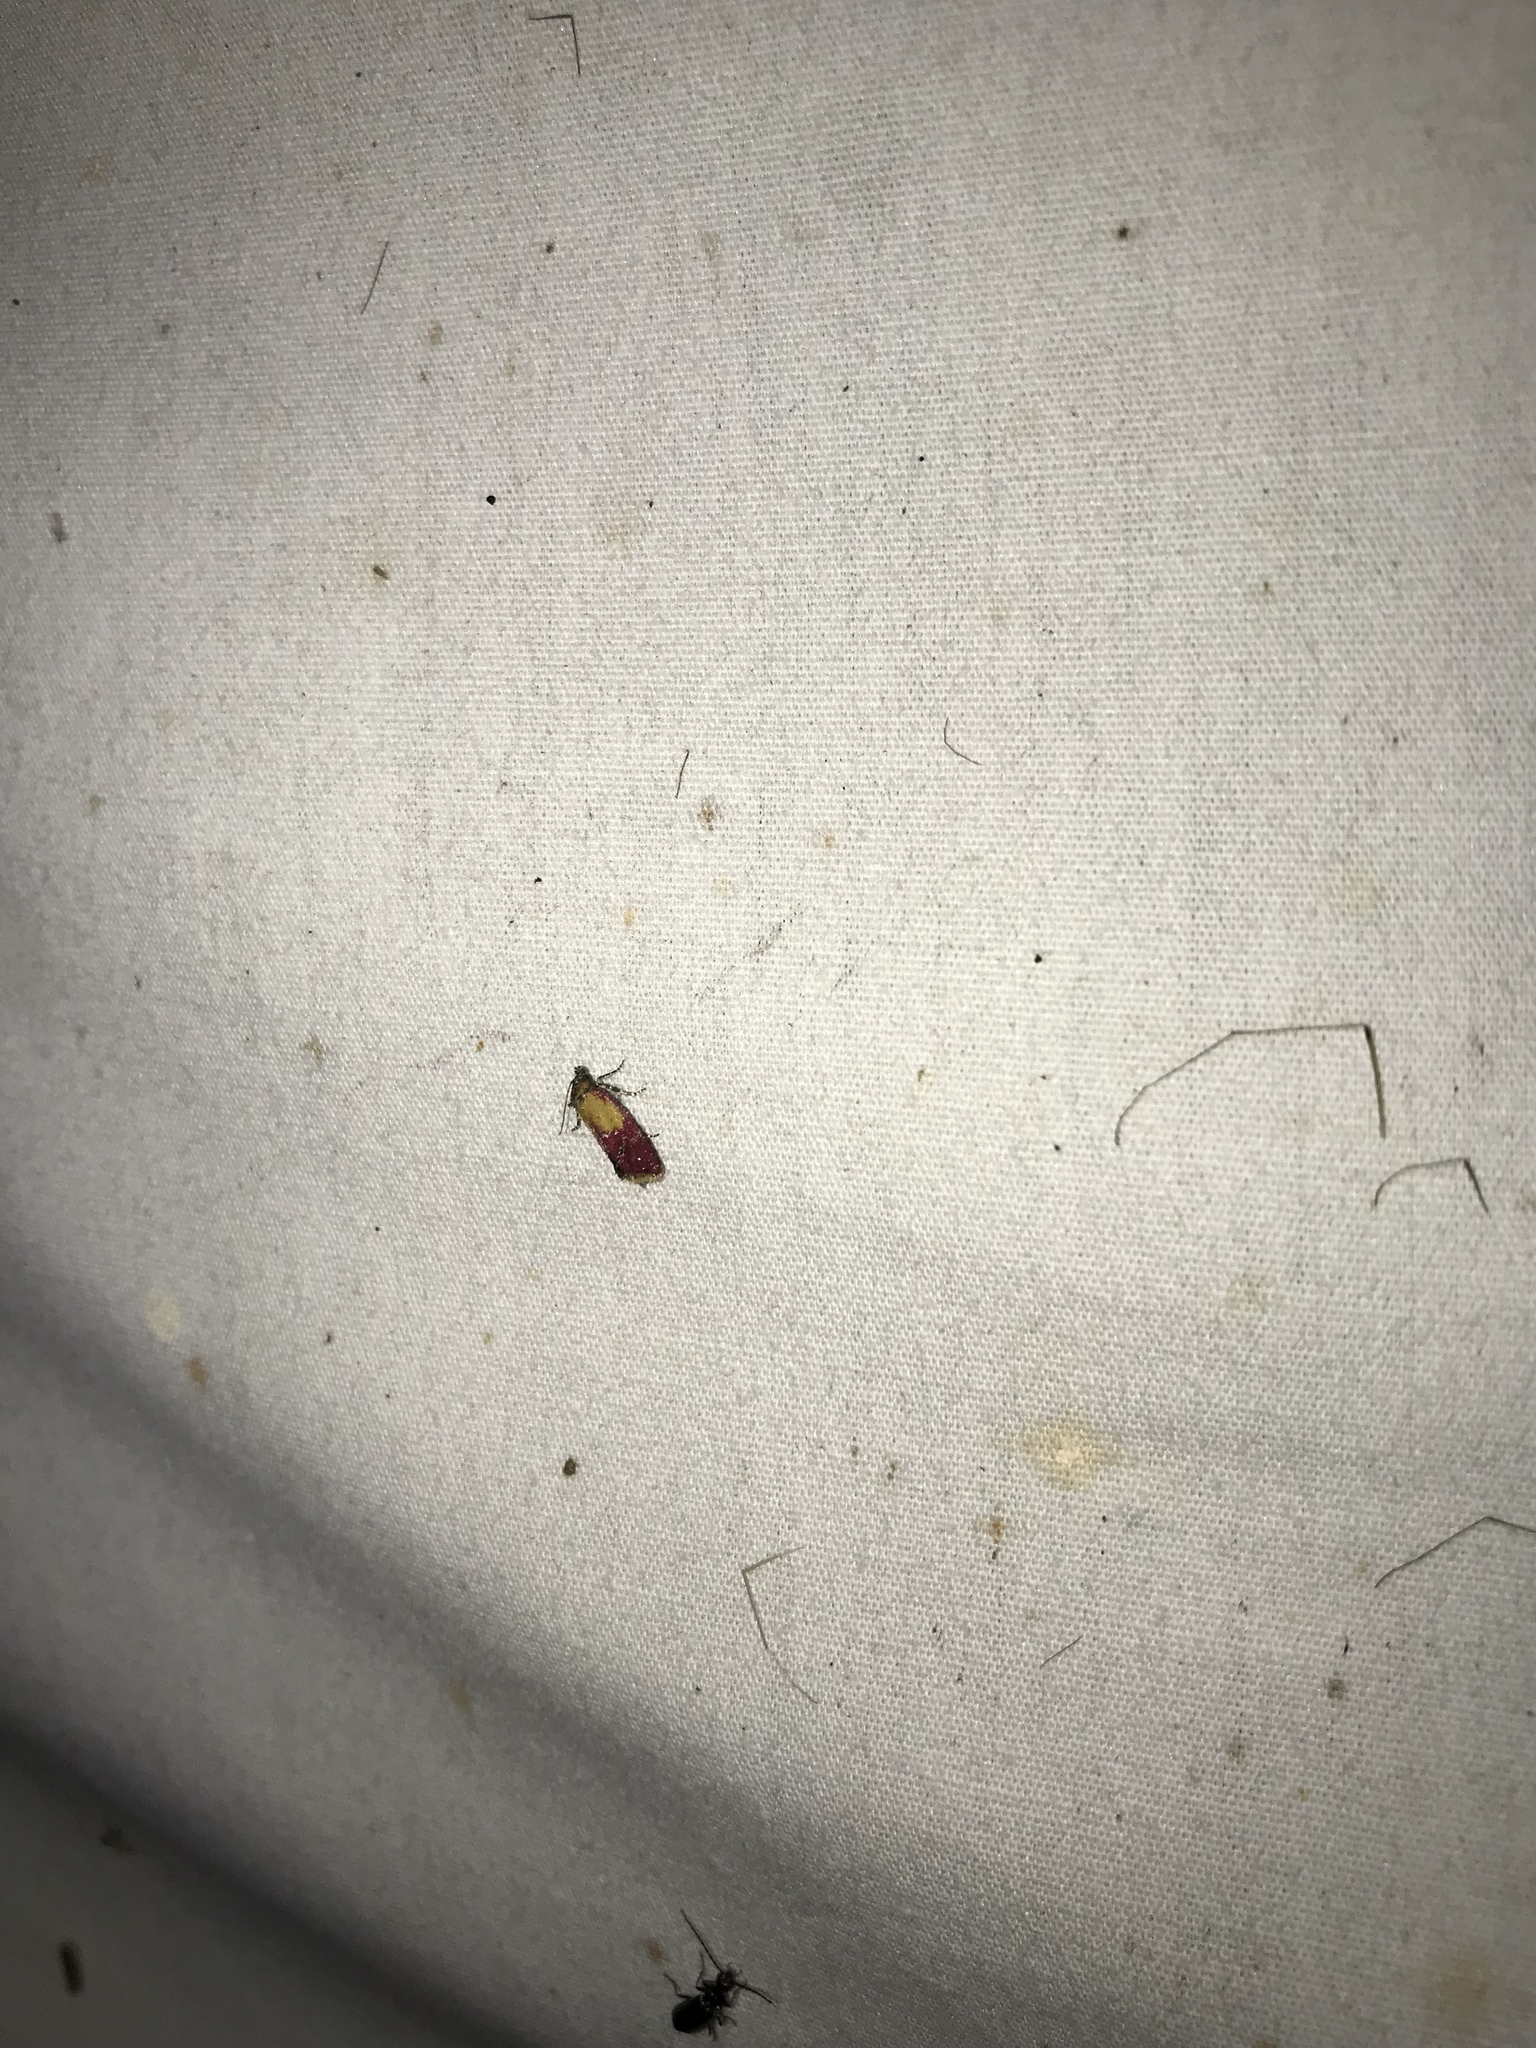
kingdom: Animalia
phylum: Arthropoda
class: Insecta
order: Lepidoptera
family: Tortricidae
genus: Conchylis
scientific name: Conchylis oenotherana
